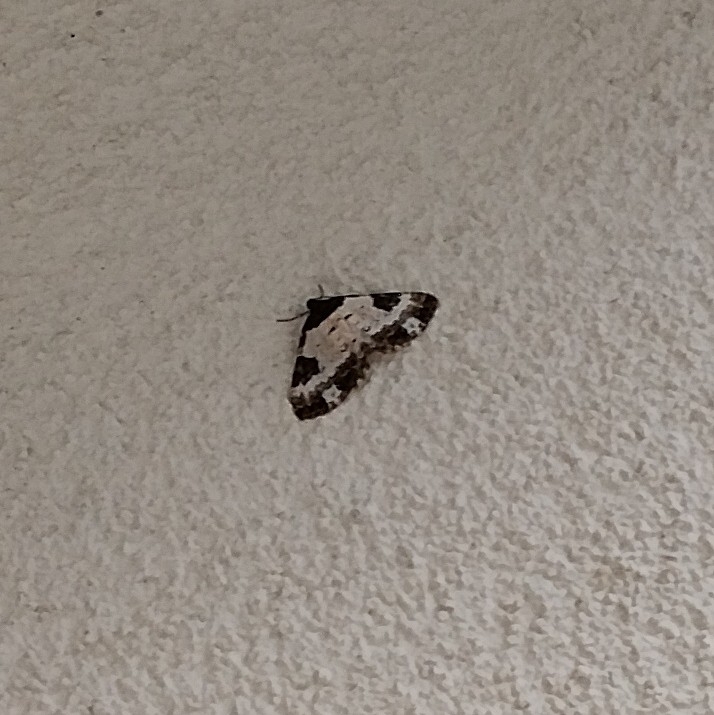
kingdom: Animalia
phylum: Arthropoda
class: Insecta
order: Lepidoptera
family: Geometridae
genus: Melanthia
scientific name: Melanthia procellata
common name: Pretty chalk carpet
